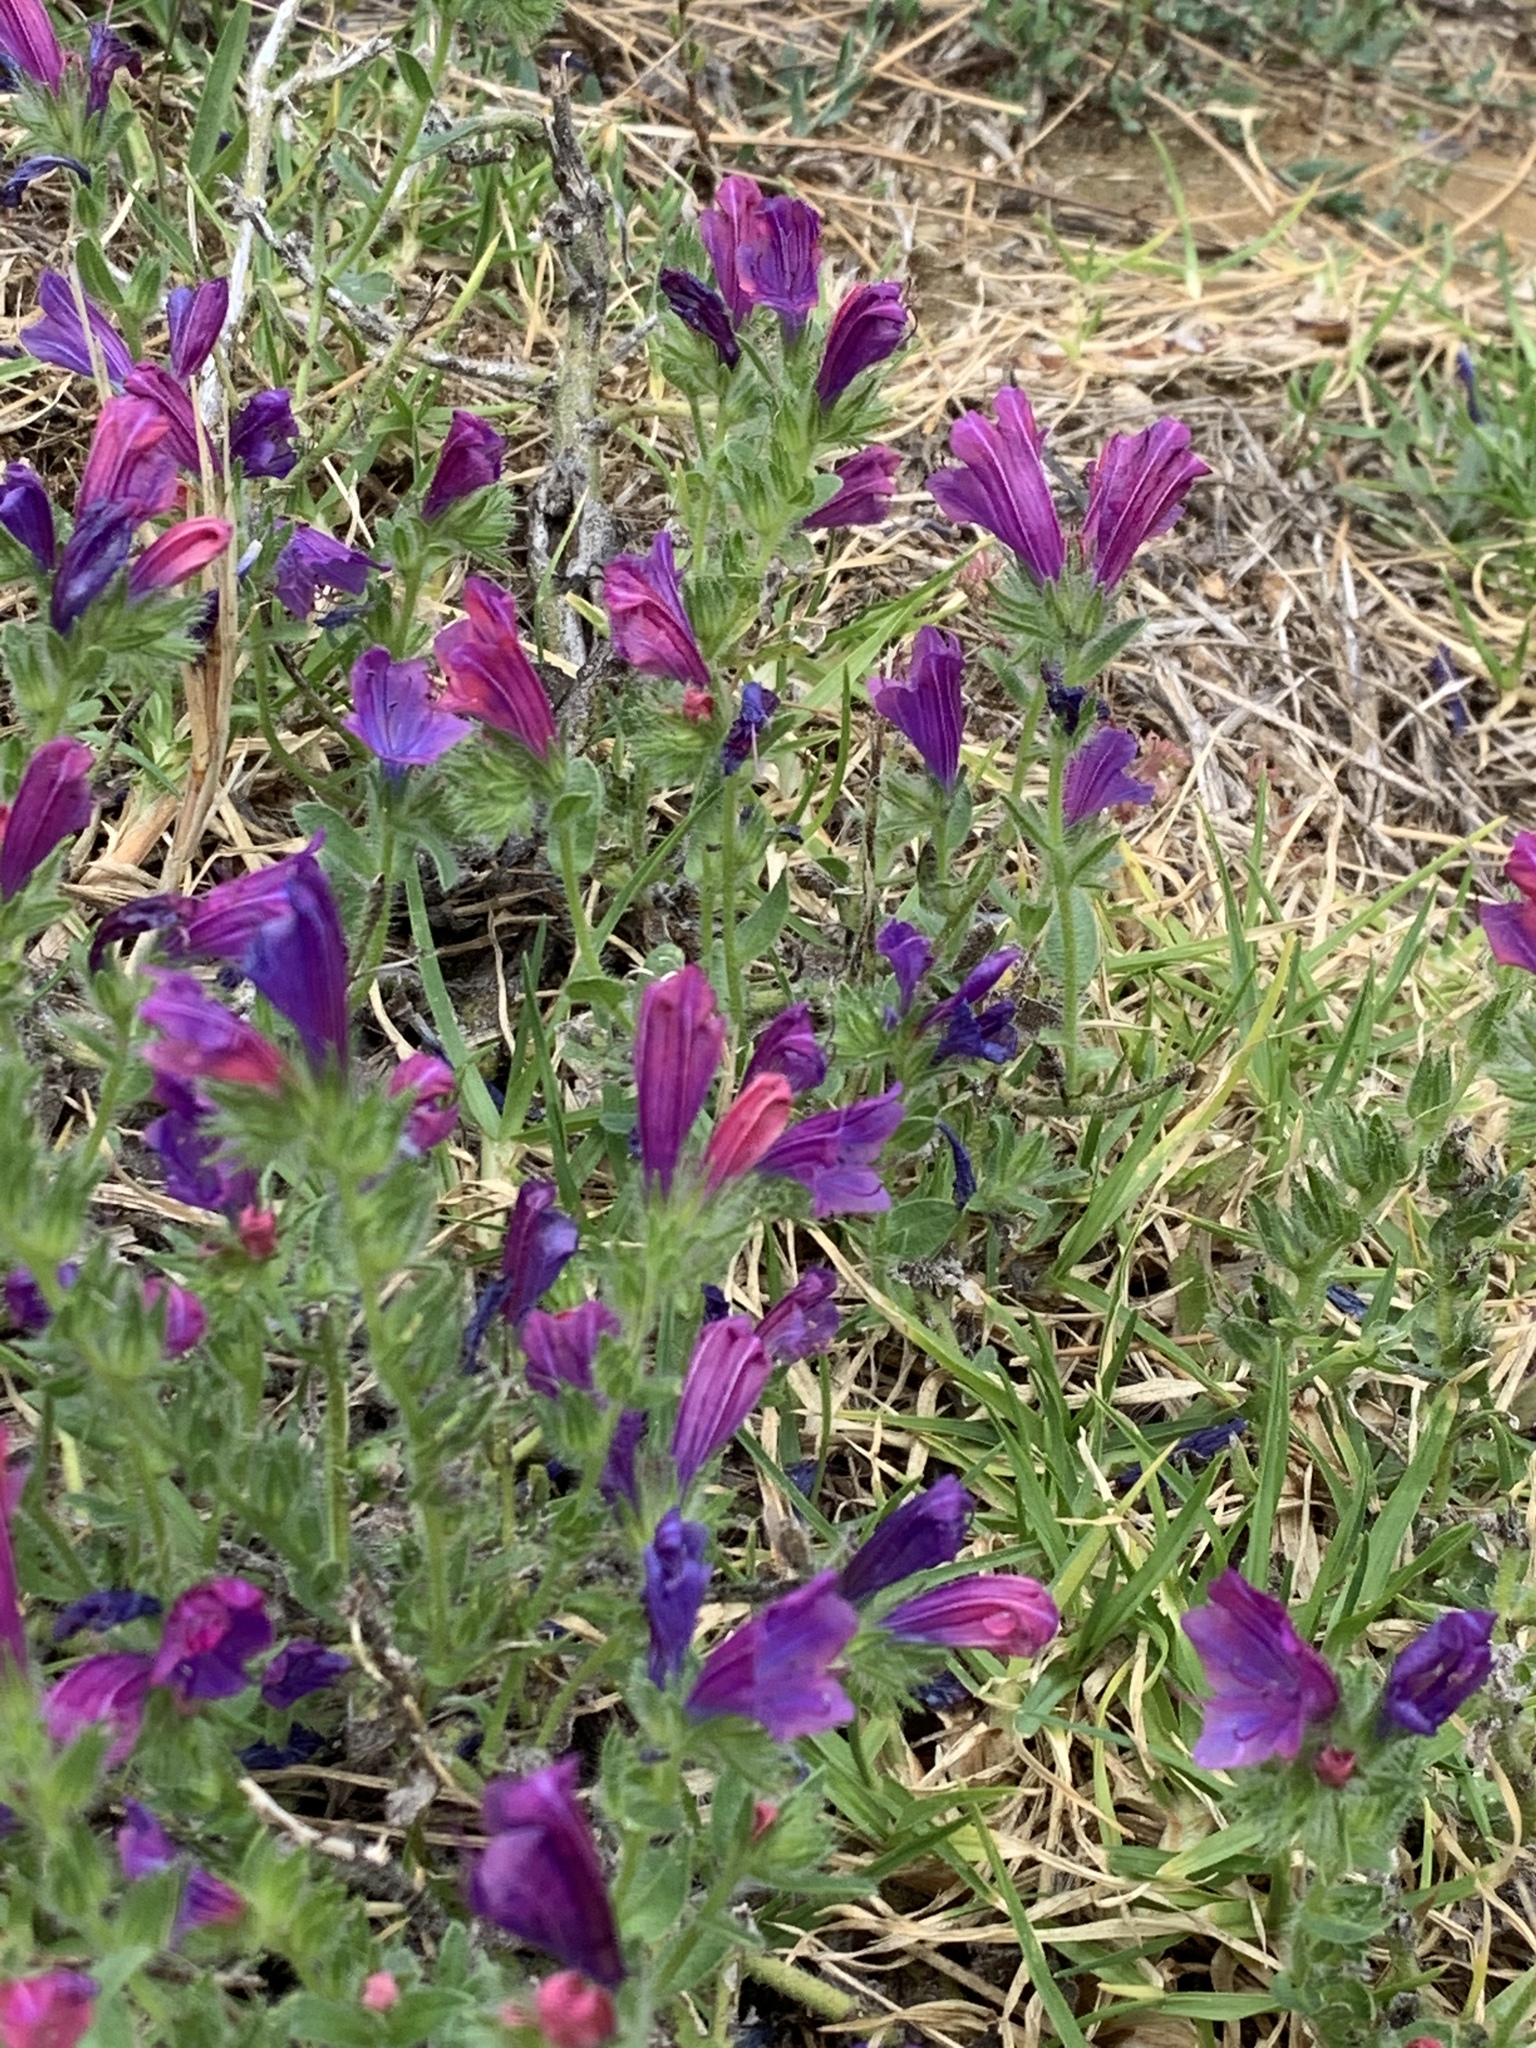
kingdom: Plantae
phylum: Tracheophyta
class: Magnoliopsida
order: Boraginales
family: Boraginaceae
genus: Echium
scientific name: Echium plantagineum
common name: Purple viper's-bugloss
